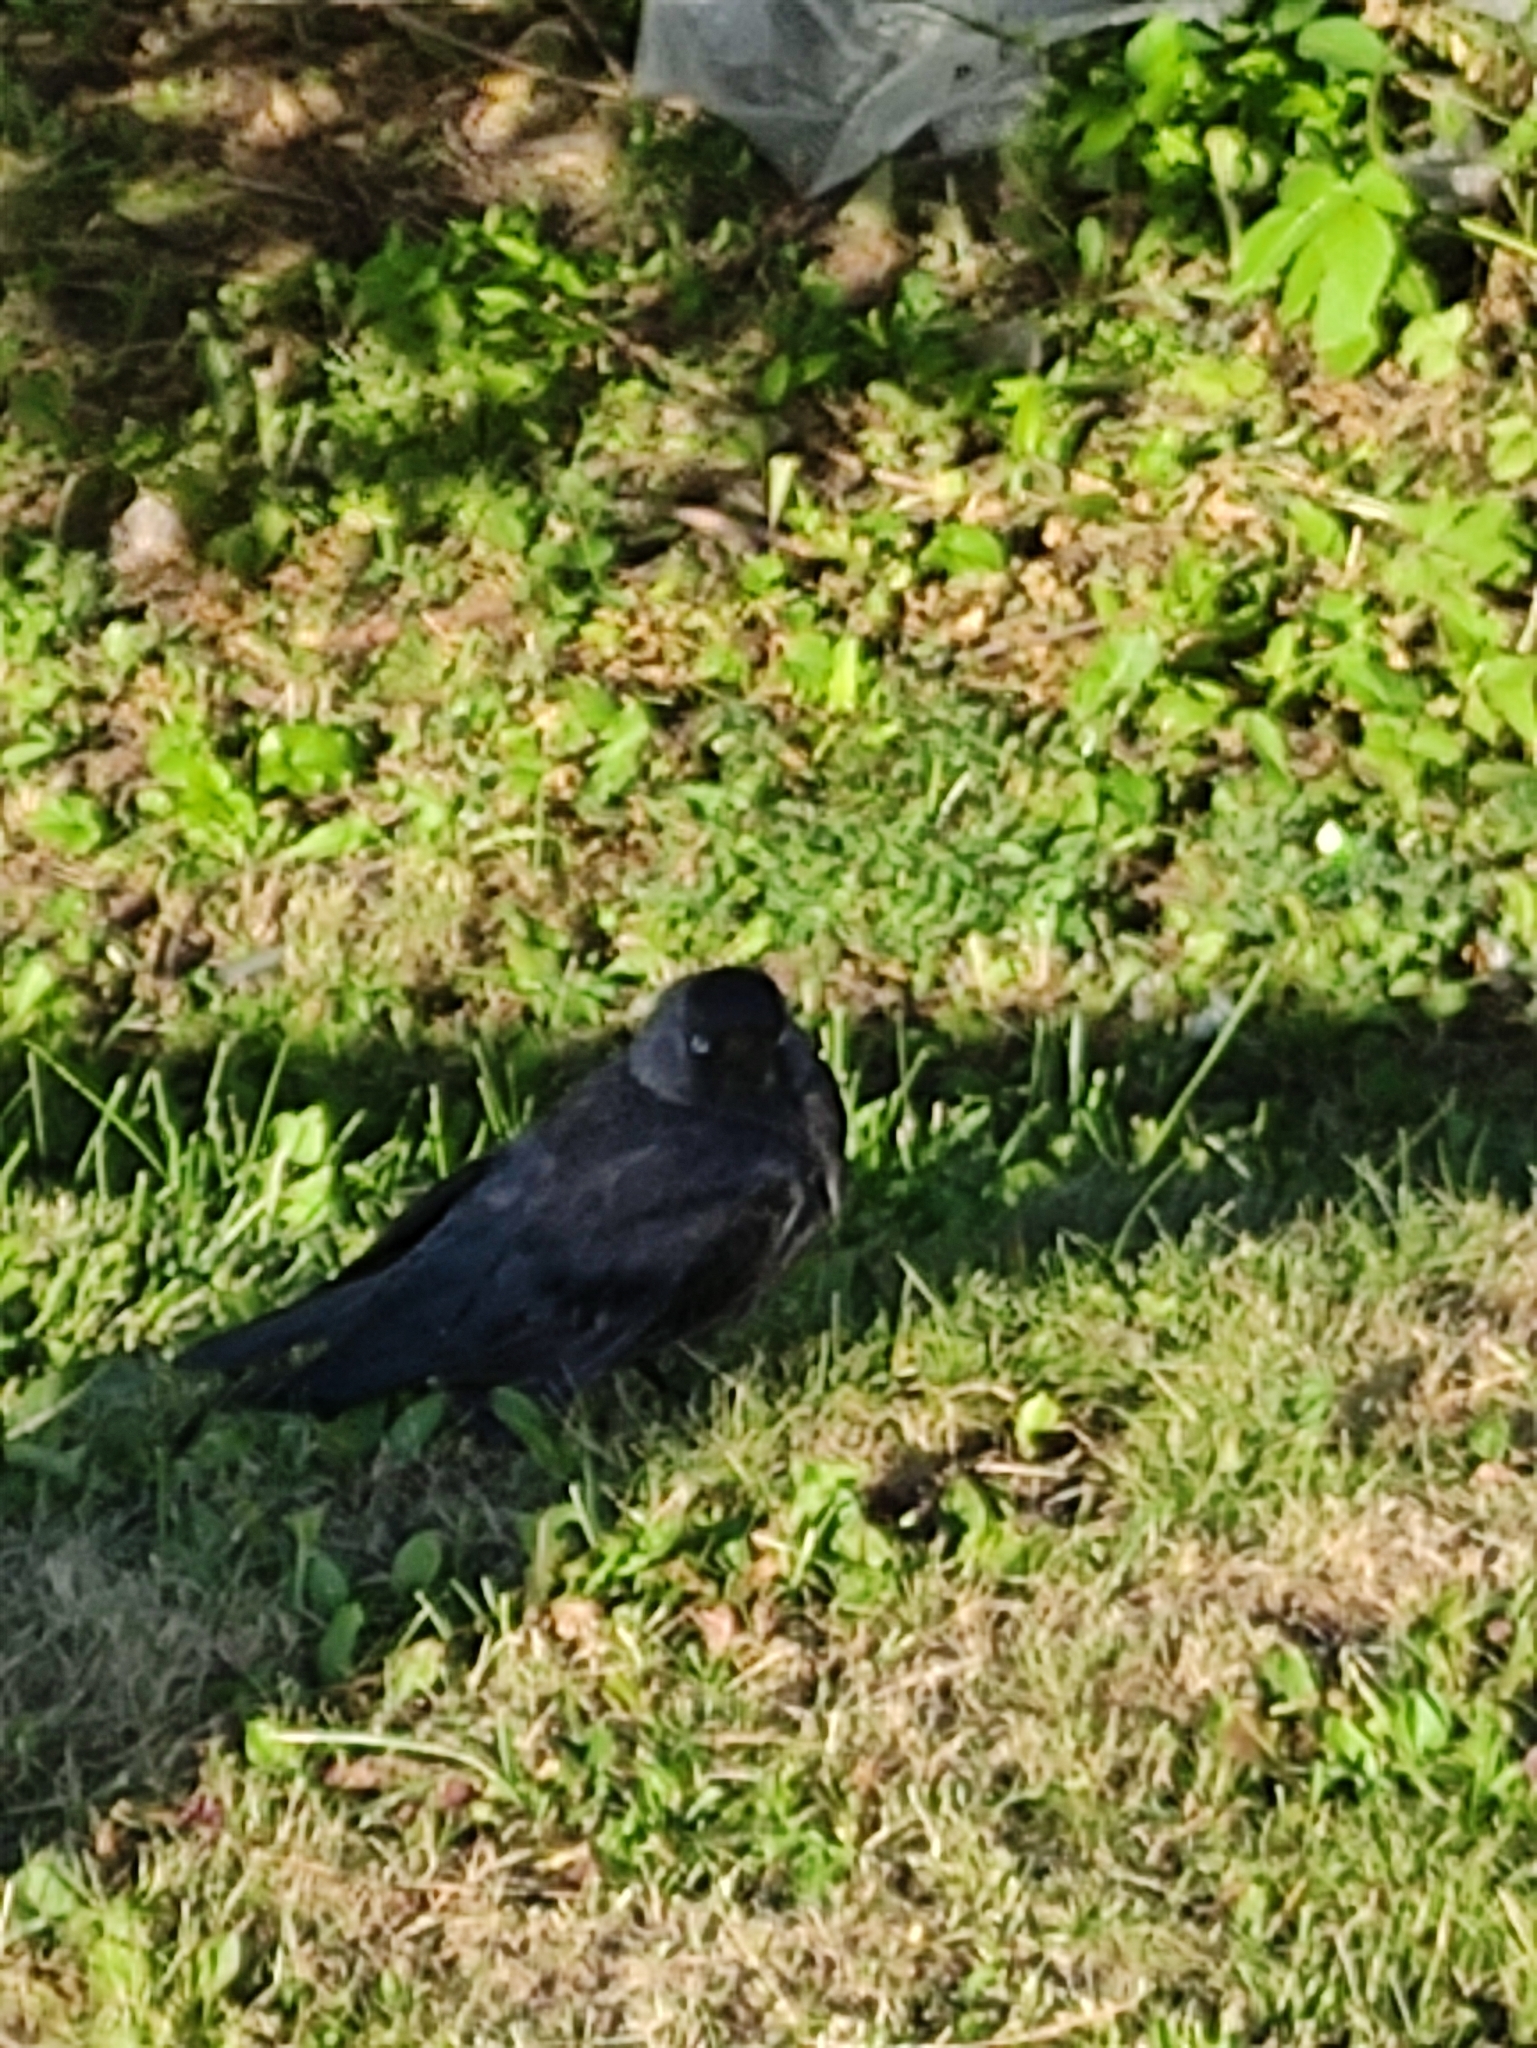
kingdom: Animalia
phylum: Chordata
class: Aves
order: Passeriformes
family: Corvidae
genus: Coloeus
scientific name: Coloeus monedula
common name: Western jackdaw
